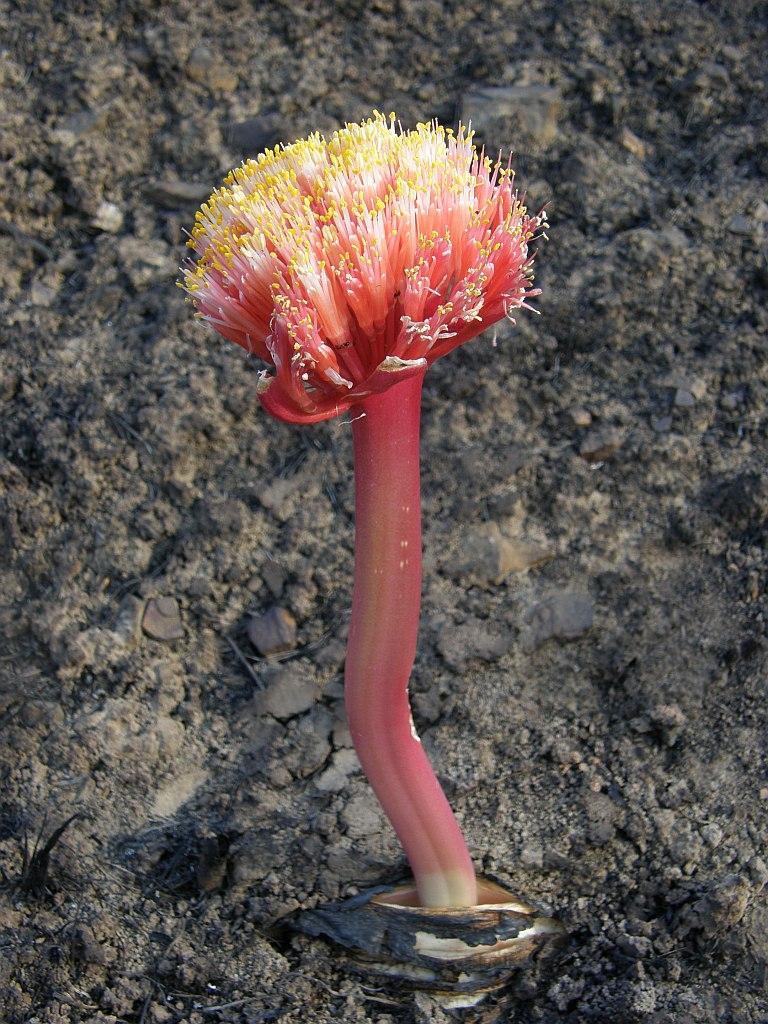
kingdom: Plantae
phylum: Tracheophyta
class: Liliopsida
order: Asparagales
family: Amaryllidaceae
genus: Haemanthus
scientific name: Haemanthus sanguineus
